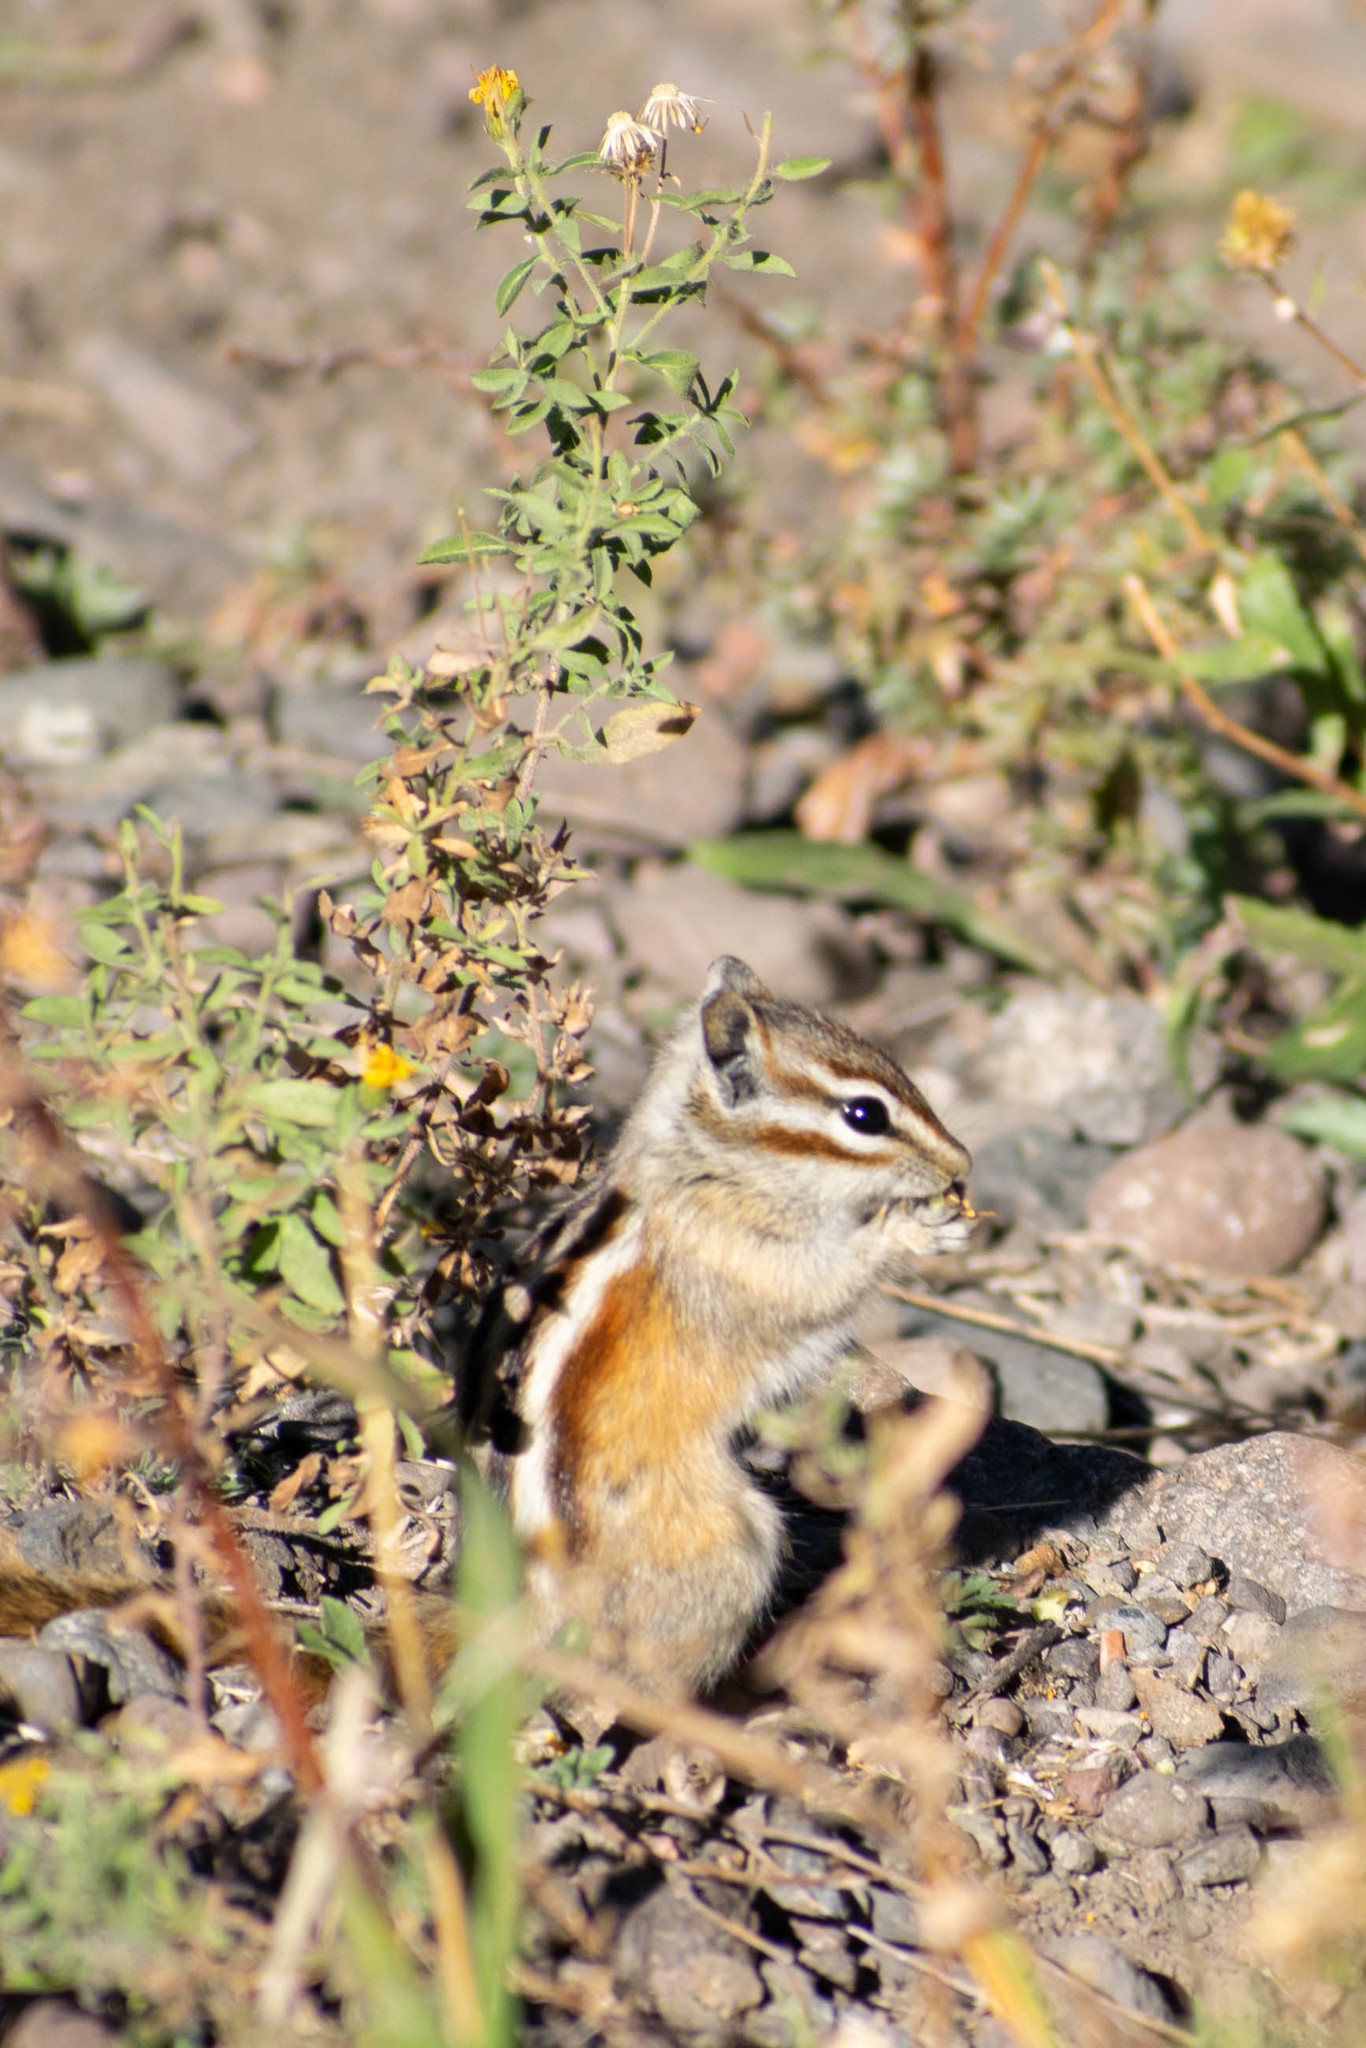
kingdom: Animalia
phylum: Chordata
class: Mammalia
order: Rodentia
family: Sciuridae
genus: Tamias
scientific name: Tamias minimus
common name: Least chipmunk
